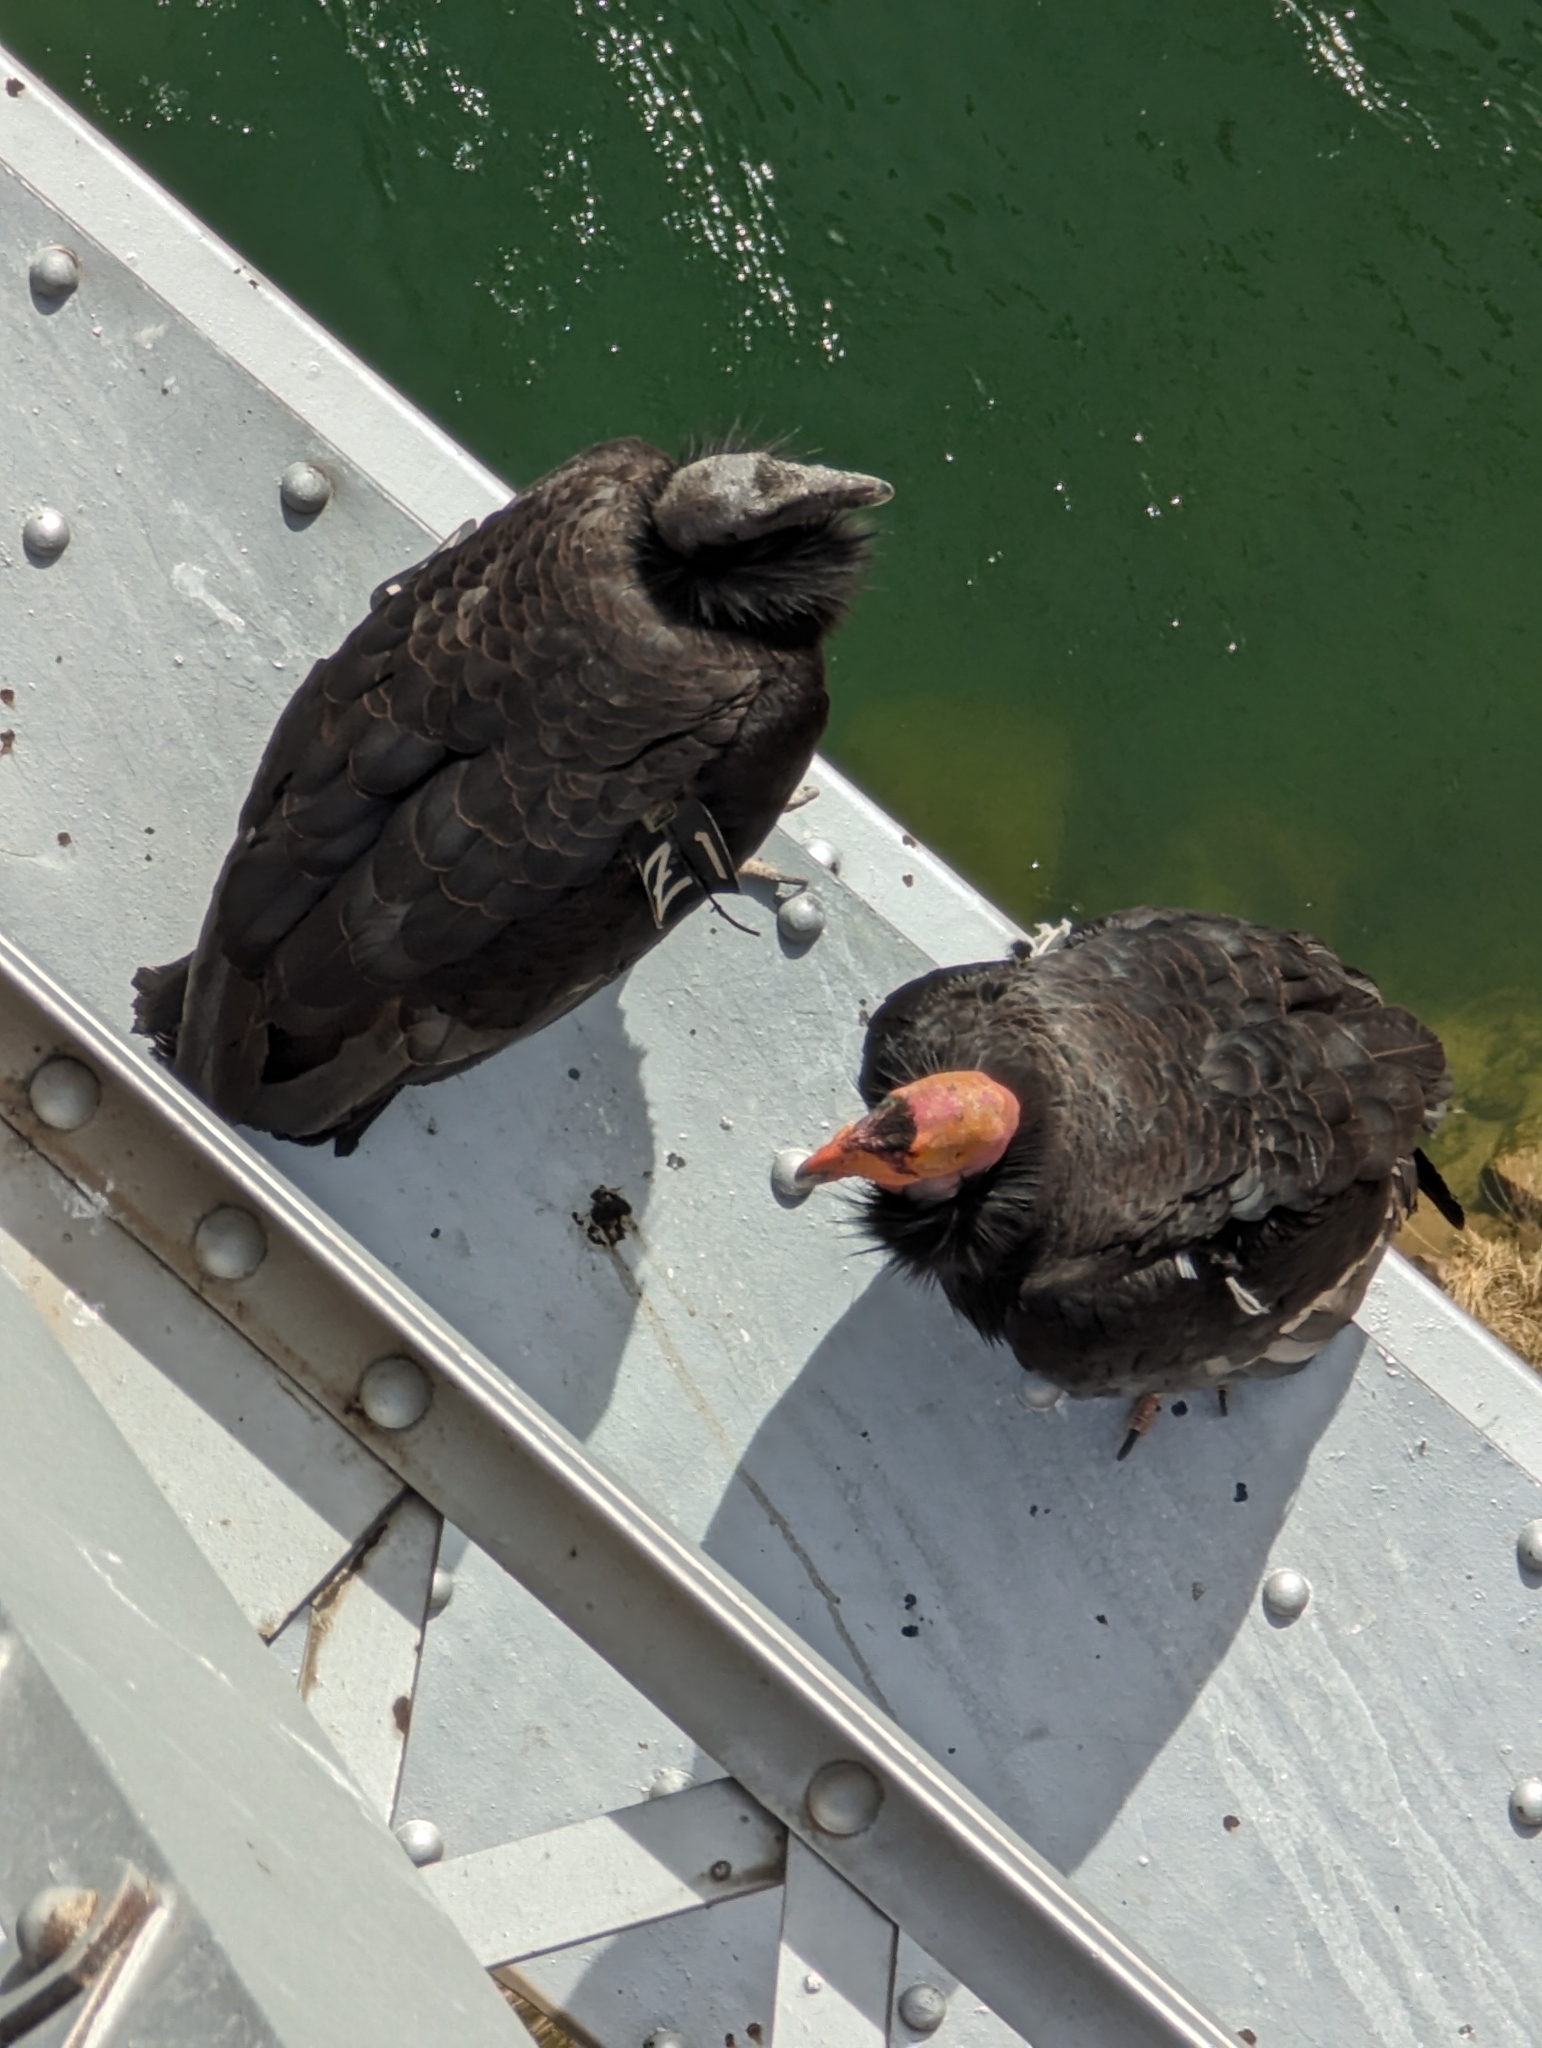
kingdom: Animalia
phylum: Chordata
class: Aves
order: Accipitriformes
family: Cathartidae
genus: Gymnogyps
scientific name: Gymnogyps californianus
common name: California condor
